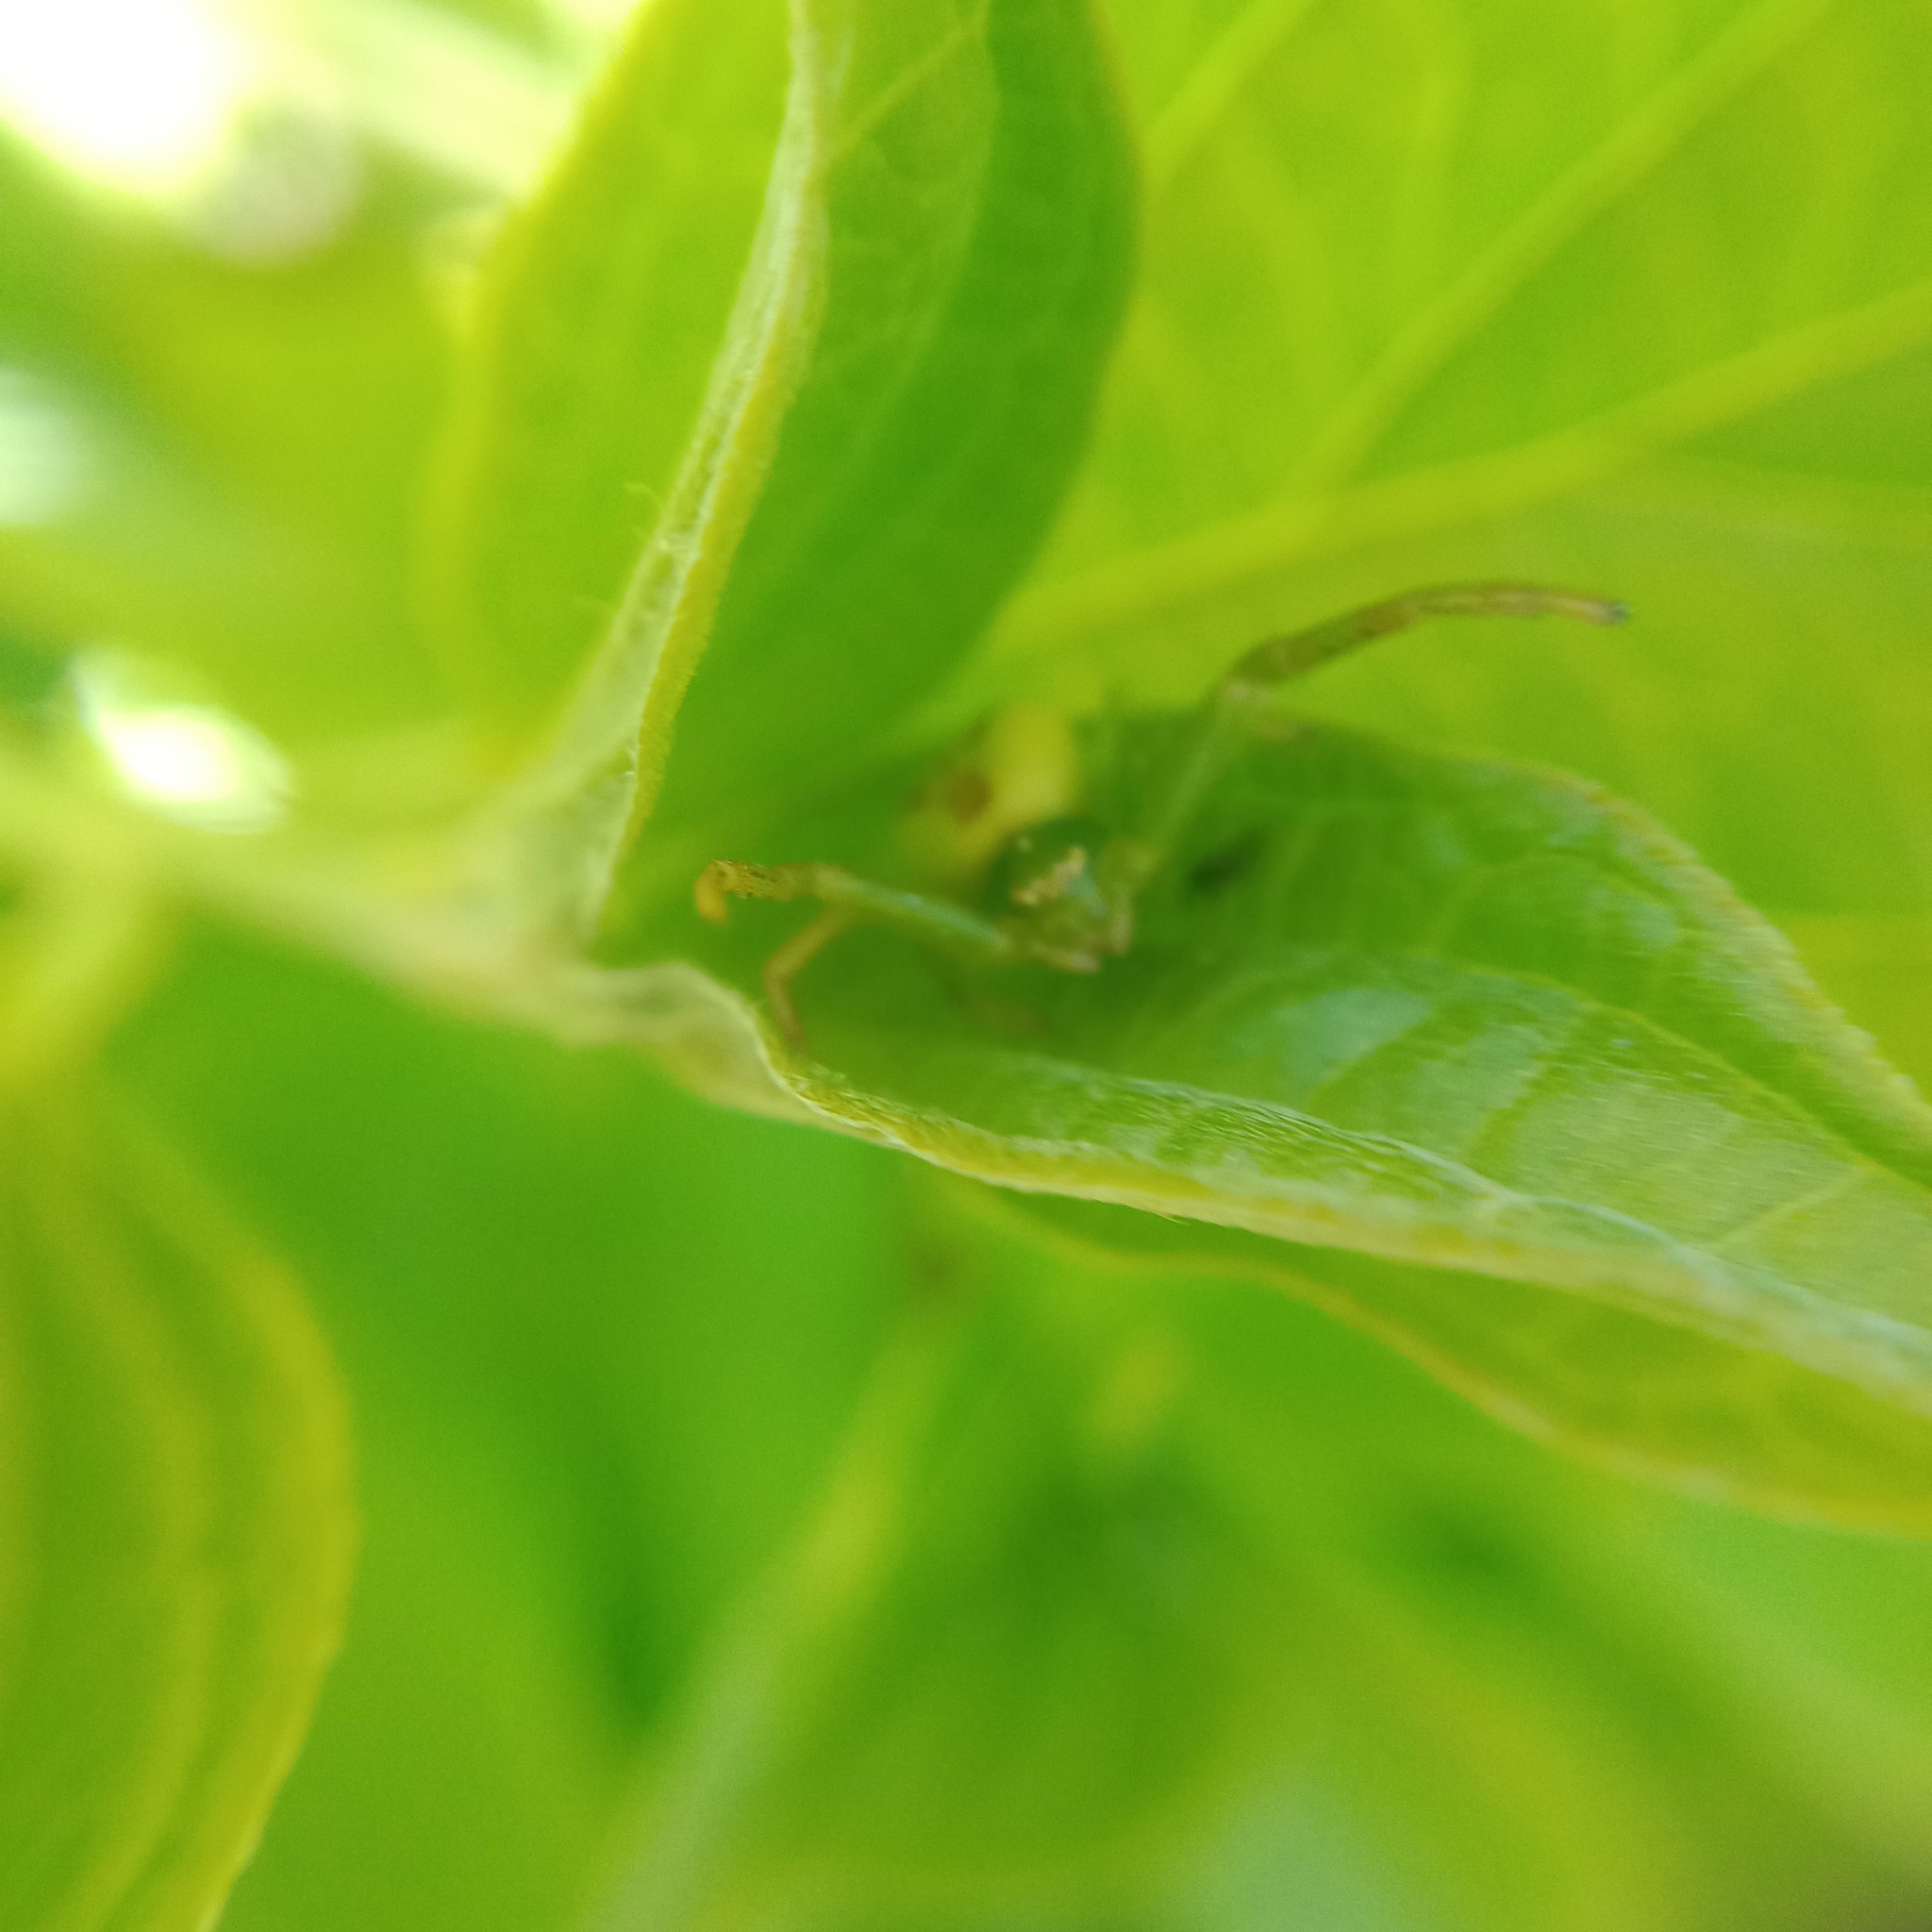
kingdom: Animalia
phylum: Arthropoda
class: Arachnida
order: Araneae
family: Thomisidae
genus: Ebrechtella
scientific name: Ebrechtella tricuspidata
